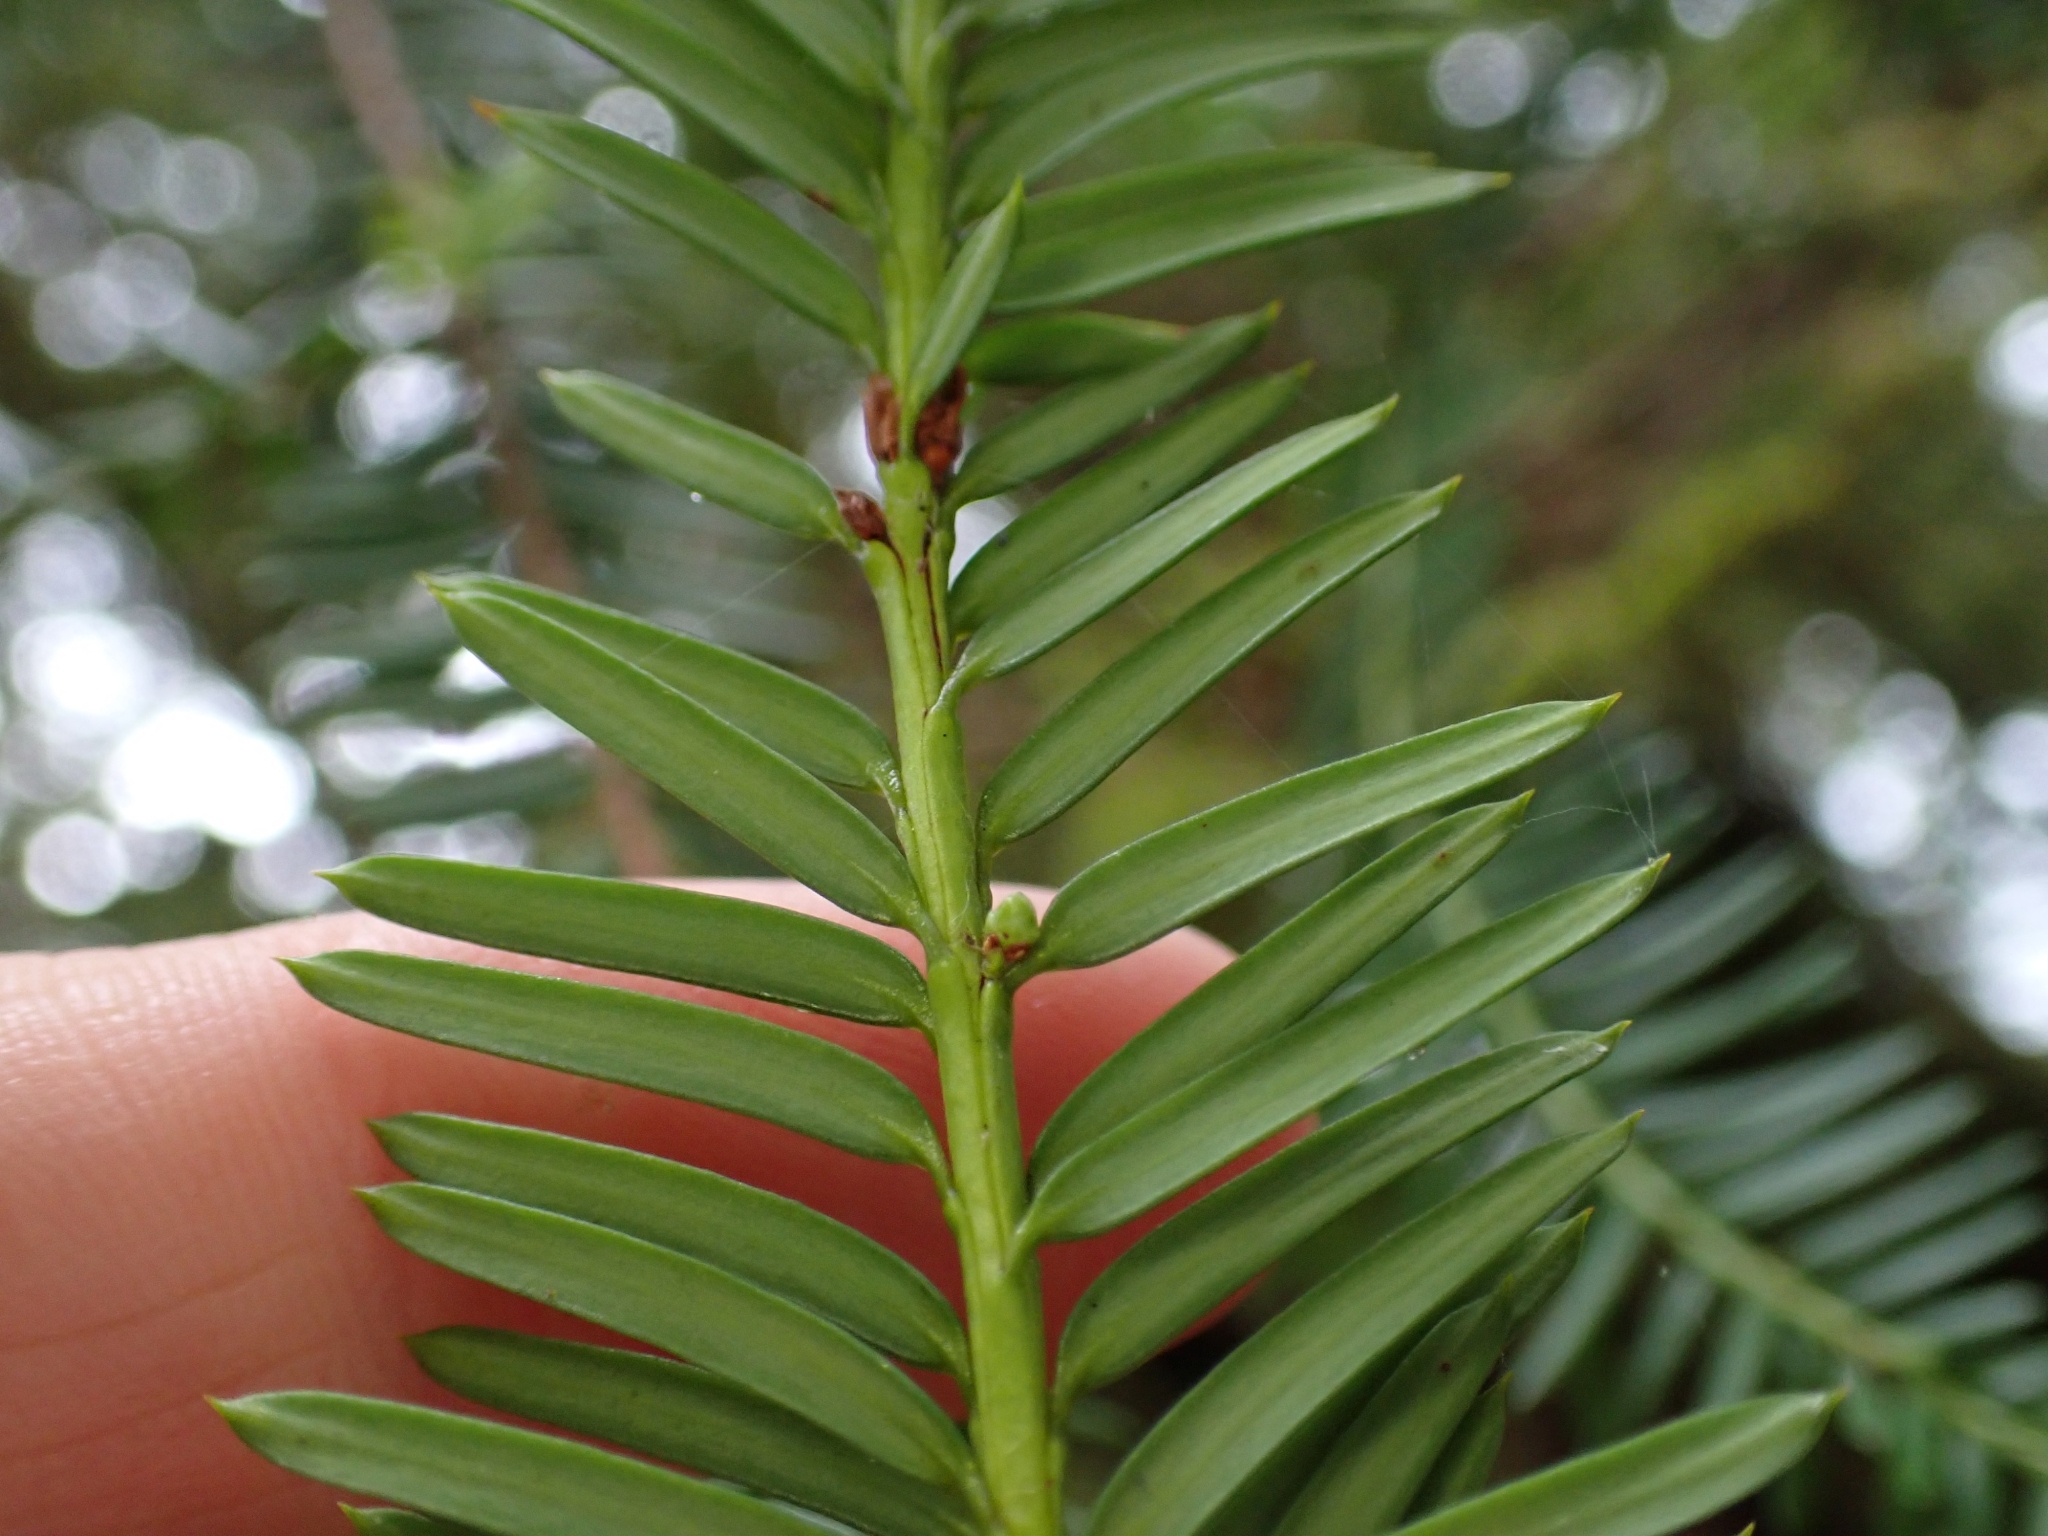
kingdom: Plantae
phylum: Tracheophyta
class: Pinopsida
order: Pinales
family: Taxaceae
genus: Taxus
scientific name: Taxus brevifolia
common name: Pacific yew
